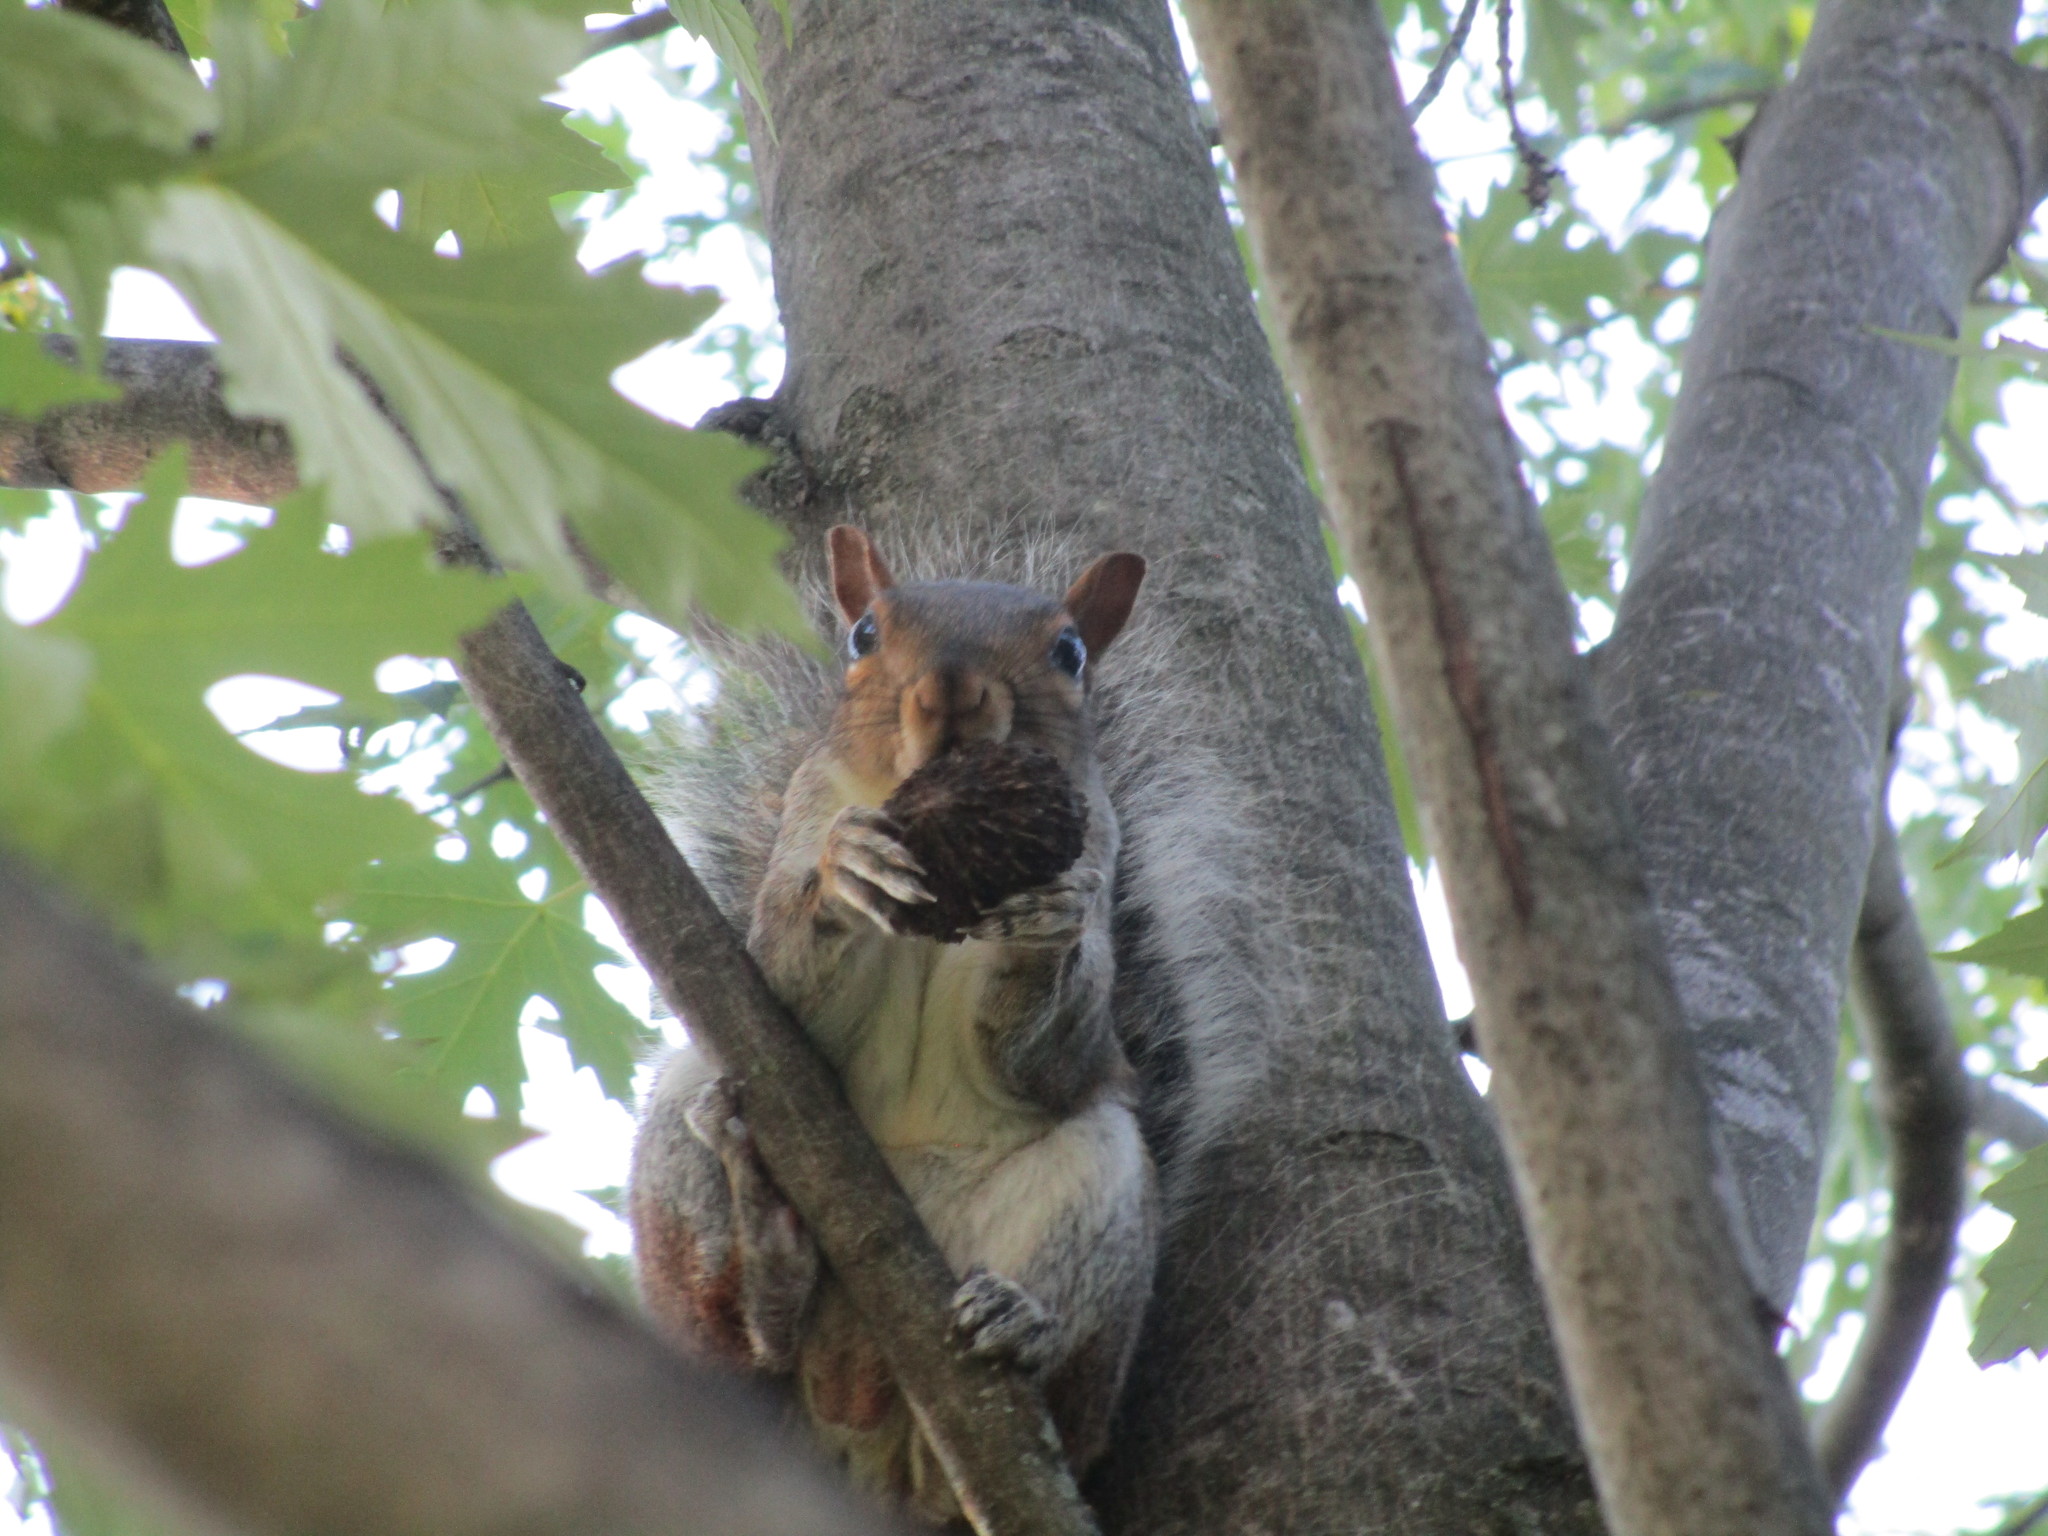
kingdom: Animalia
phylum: Chordata
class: Mammalia
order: Rodentia
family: Sciuridae
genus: Sciurus
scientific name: Sciurus carolinensis
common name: Eastern gray squirrel
